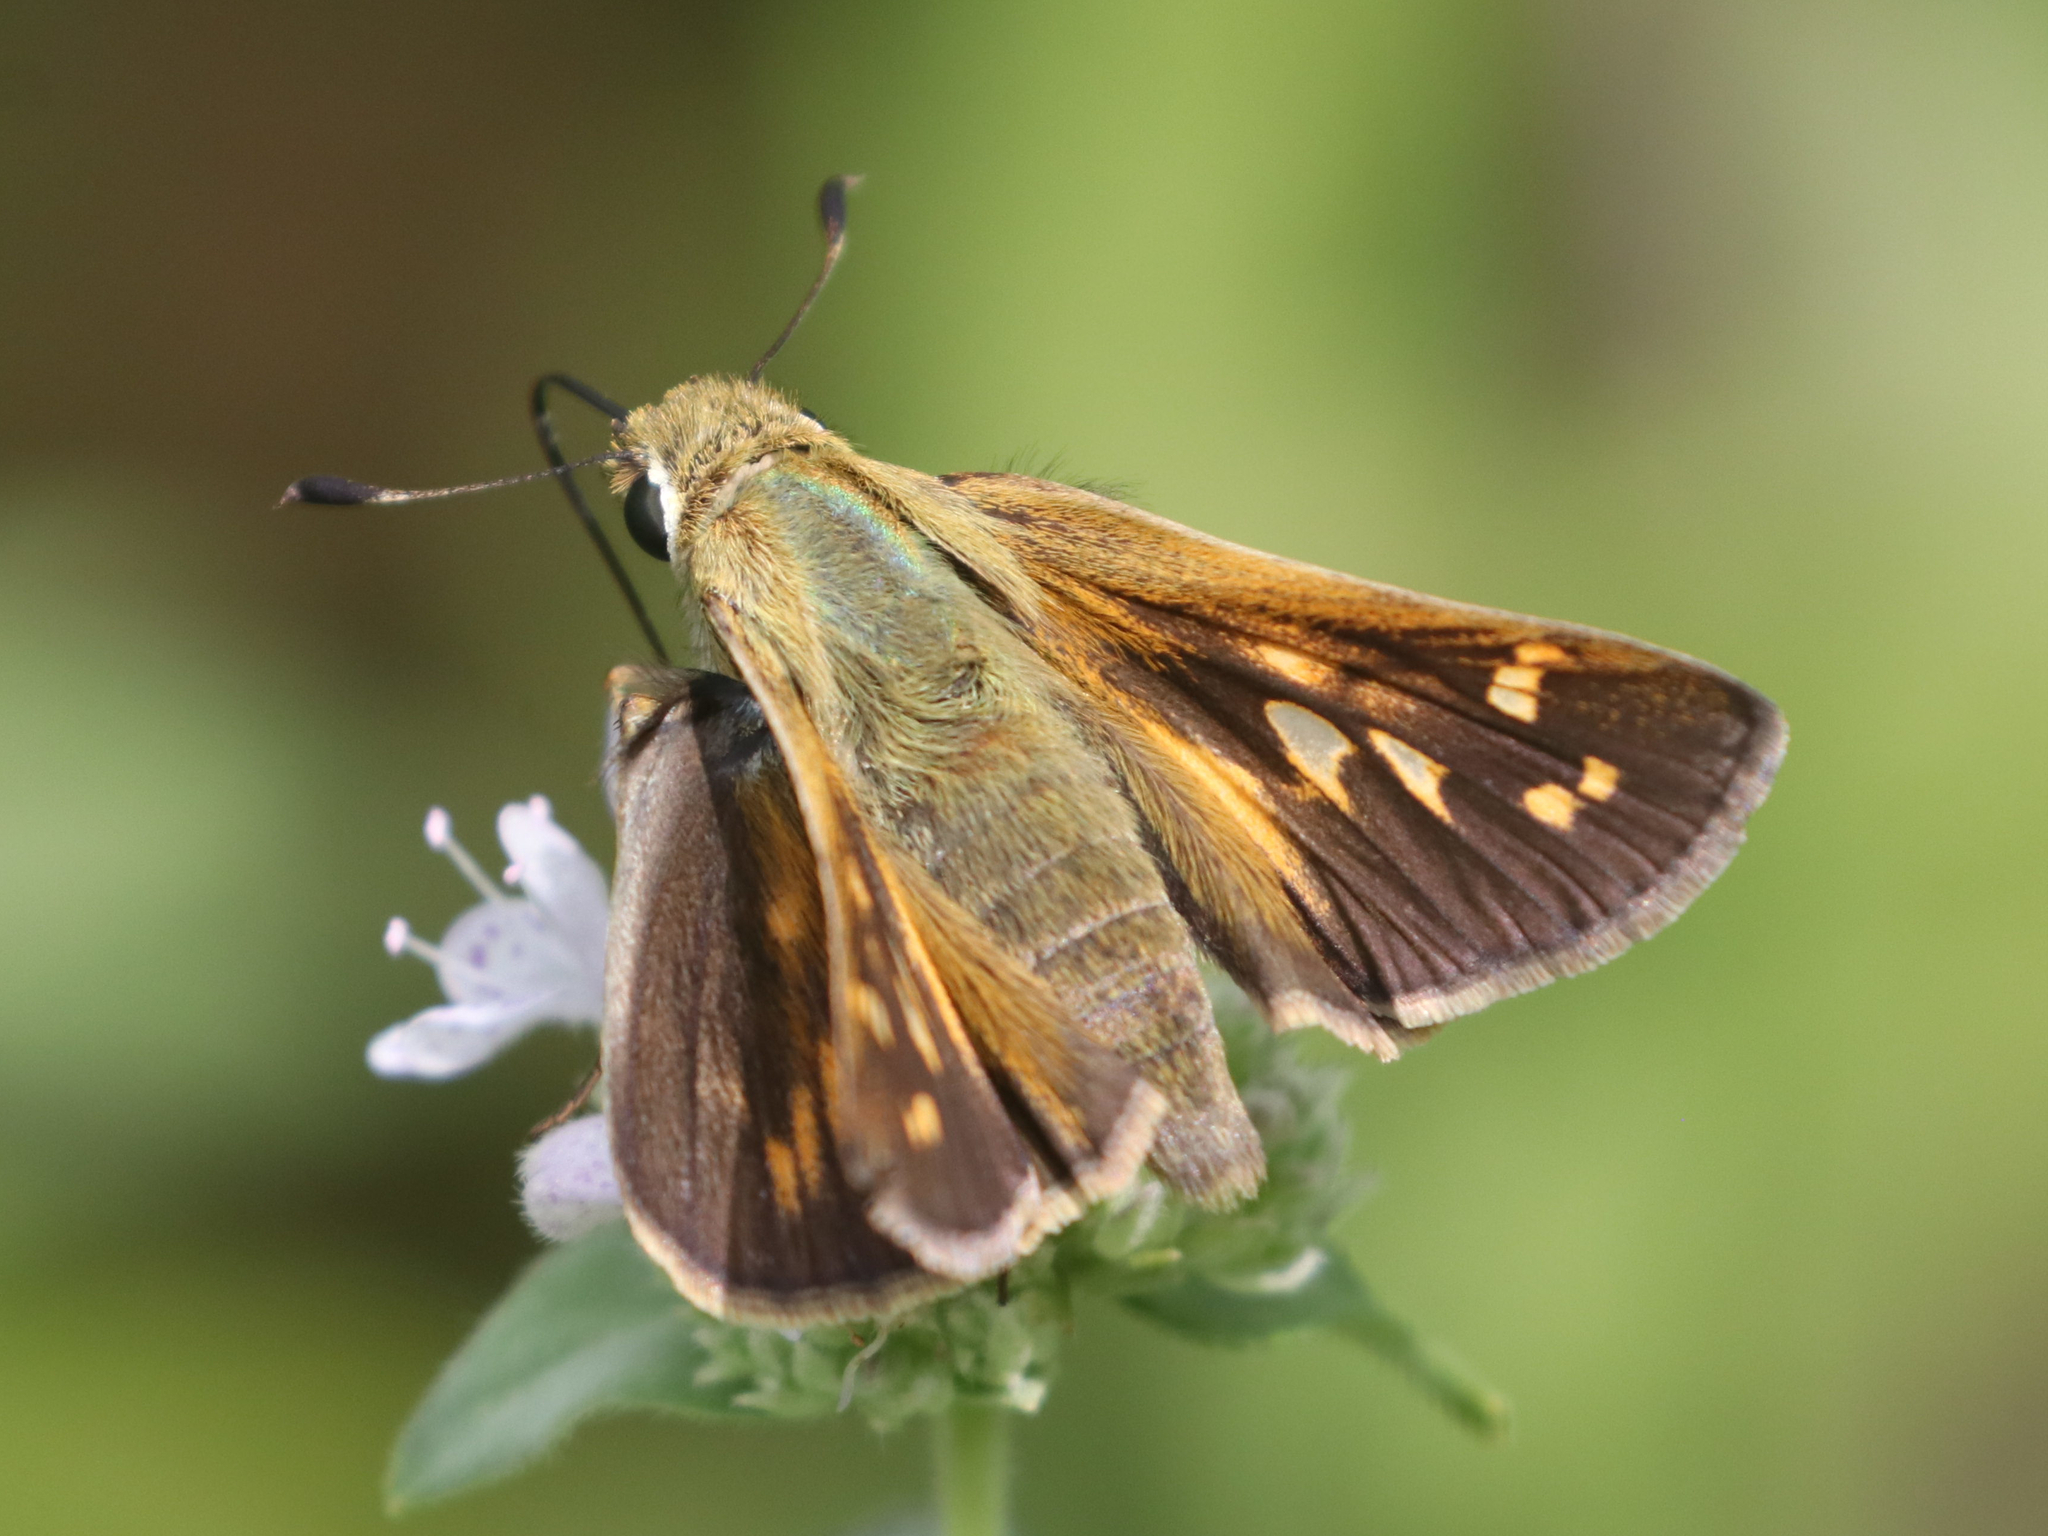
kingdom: Animalia
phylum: Arthropoda
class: Insecta
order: Lepidoptera
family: Hesperiidae
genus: Atalopedes
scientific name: Atalopedes
